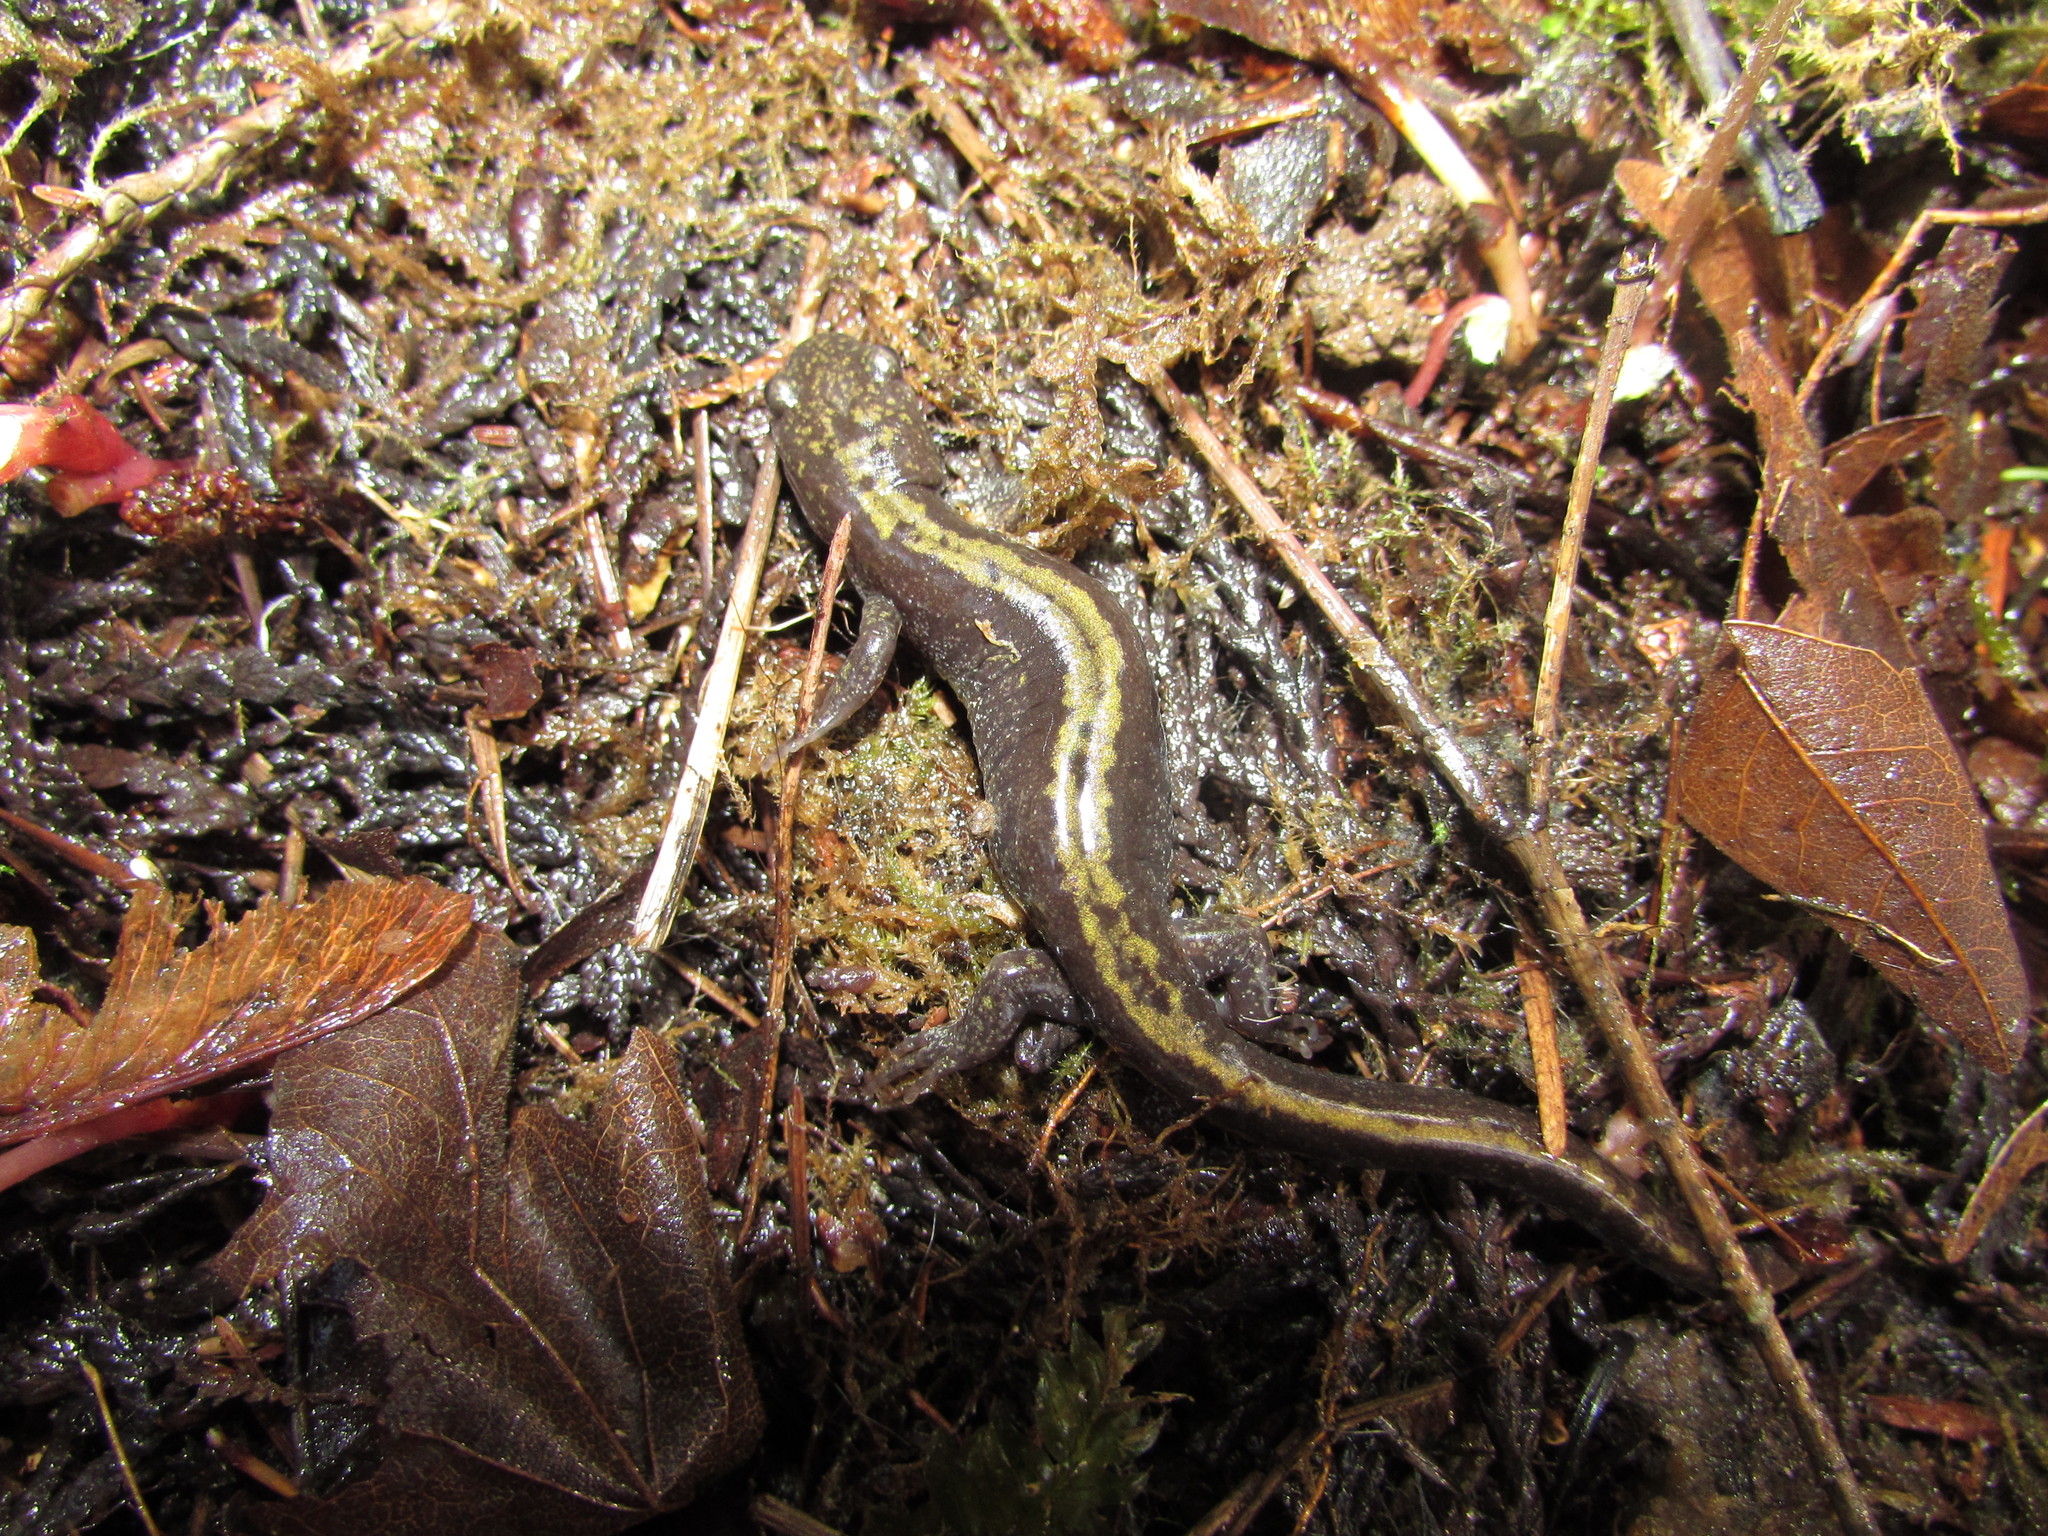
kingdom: Animalia
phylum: Chordata
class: Amphibia
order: Caudata
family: Ambystomatidae
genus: Ambystoma
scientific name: Ambystoma macrodactylum
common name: Long-toed salamander
